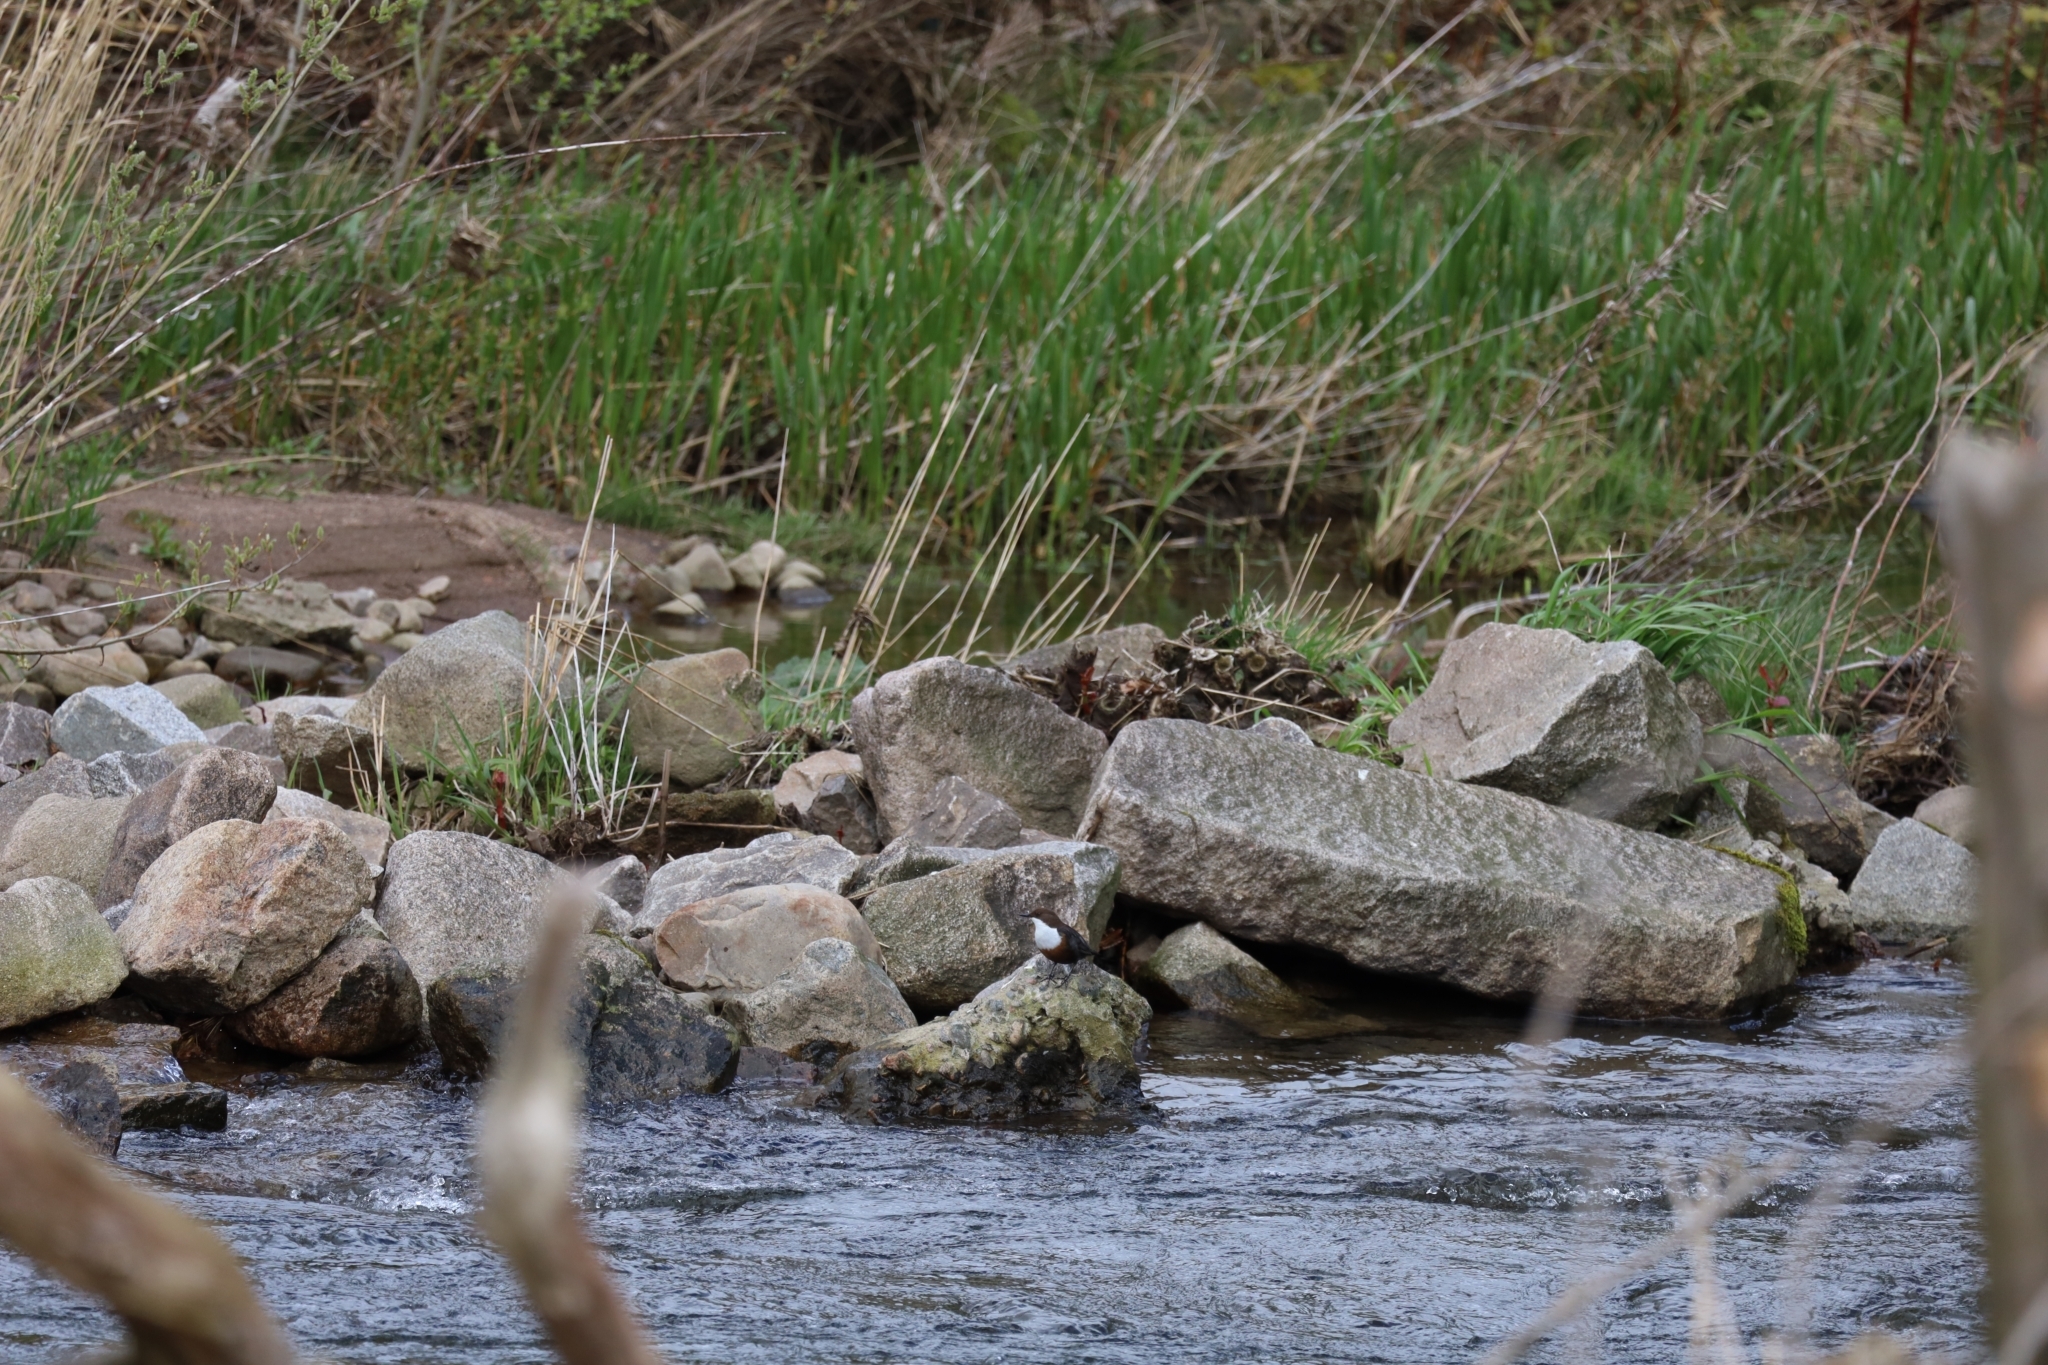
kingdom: Animalia
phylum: Chordata
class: Aves
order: Passeriformes
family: Cinclidae
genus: Cinclus
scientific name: Cinclus cinclus
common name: White-throated dipper
